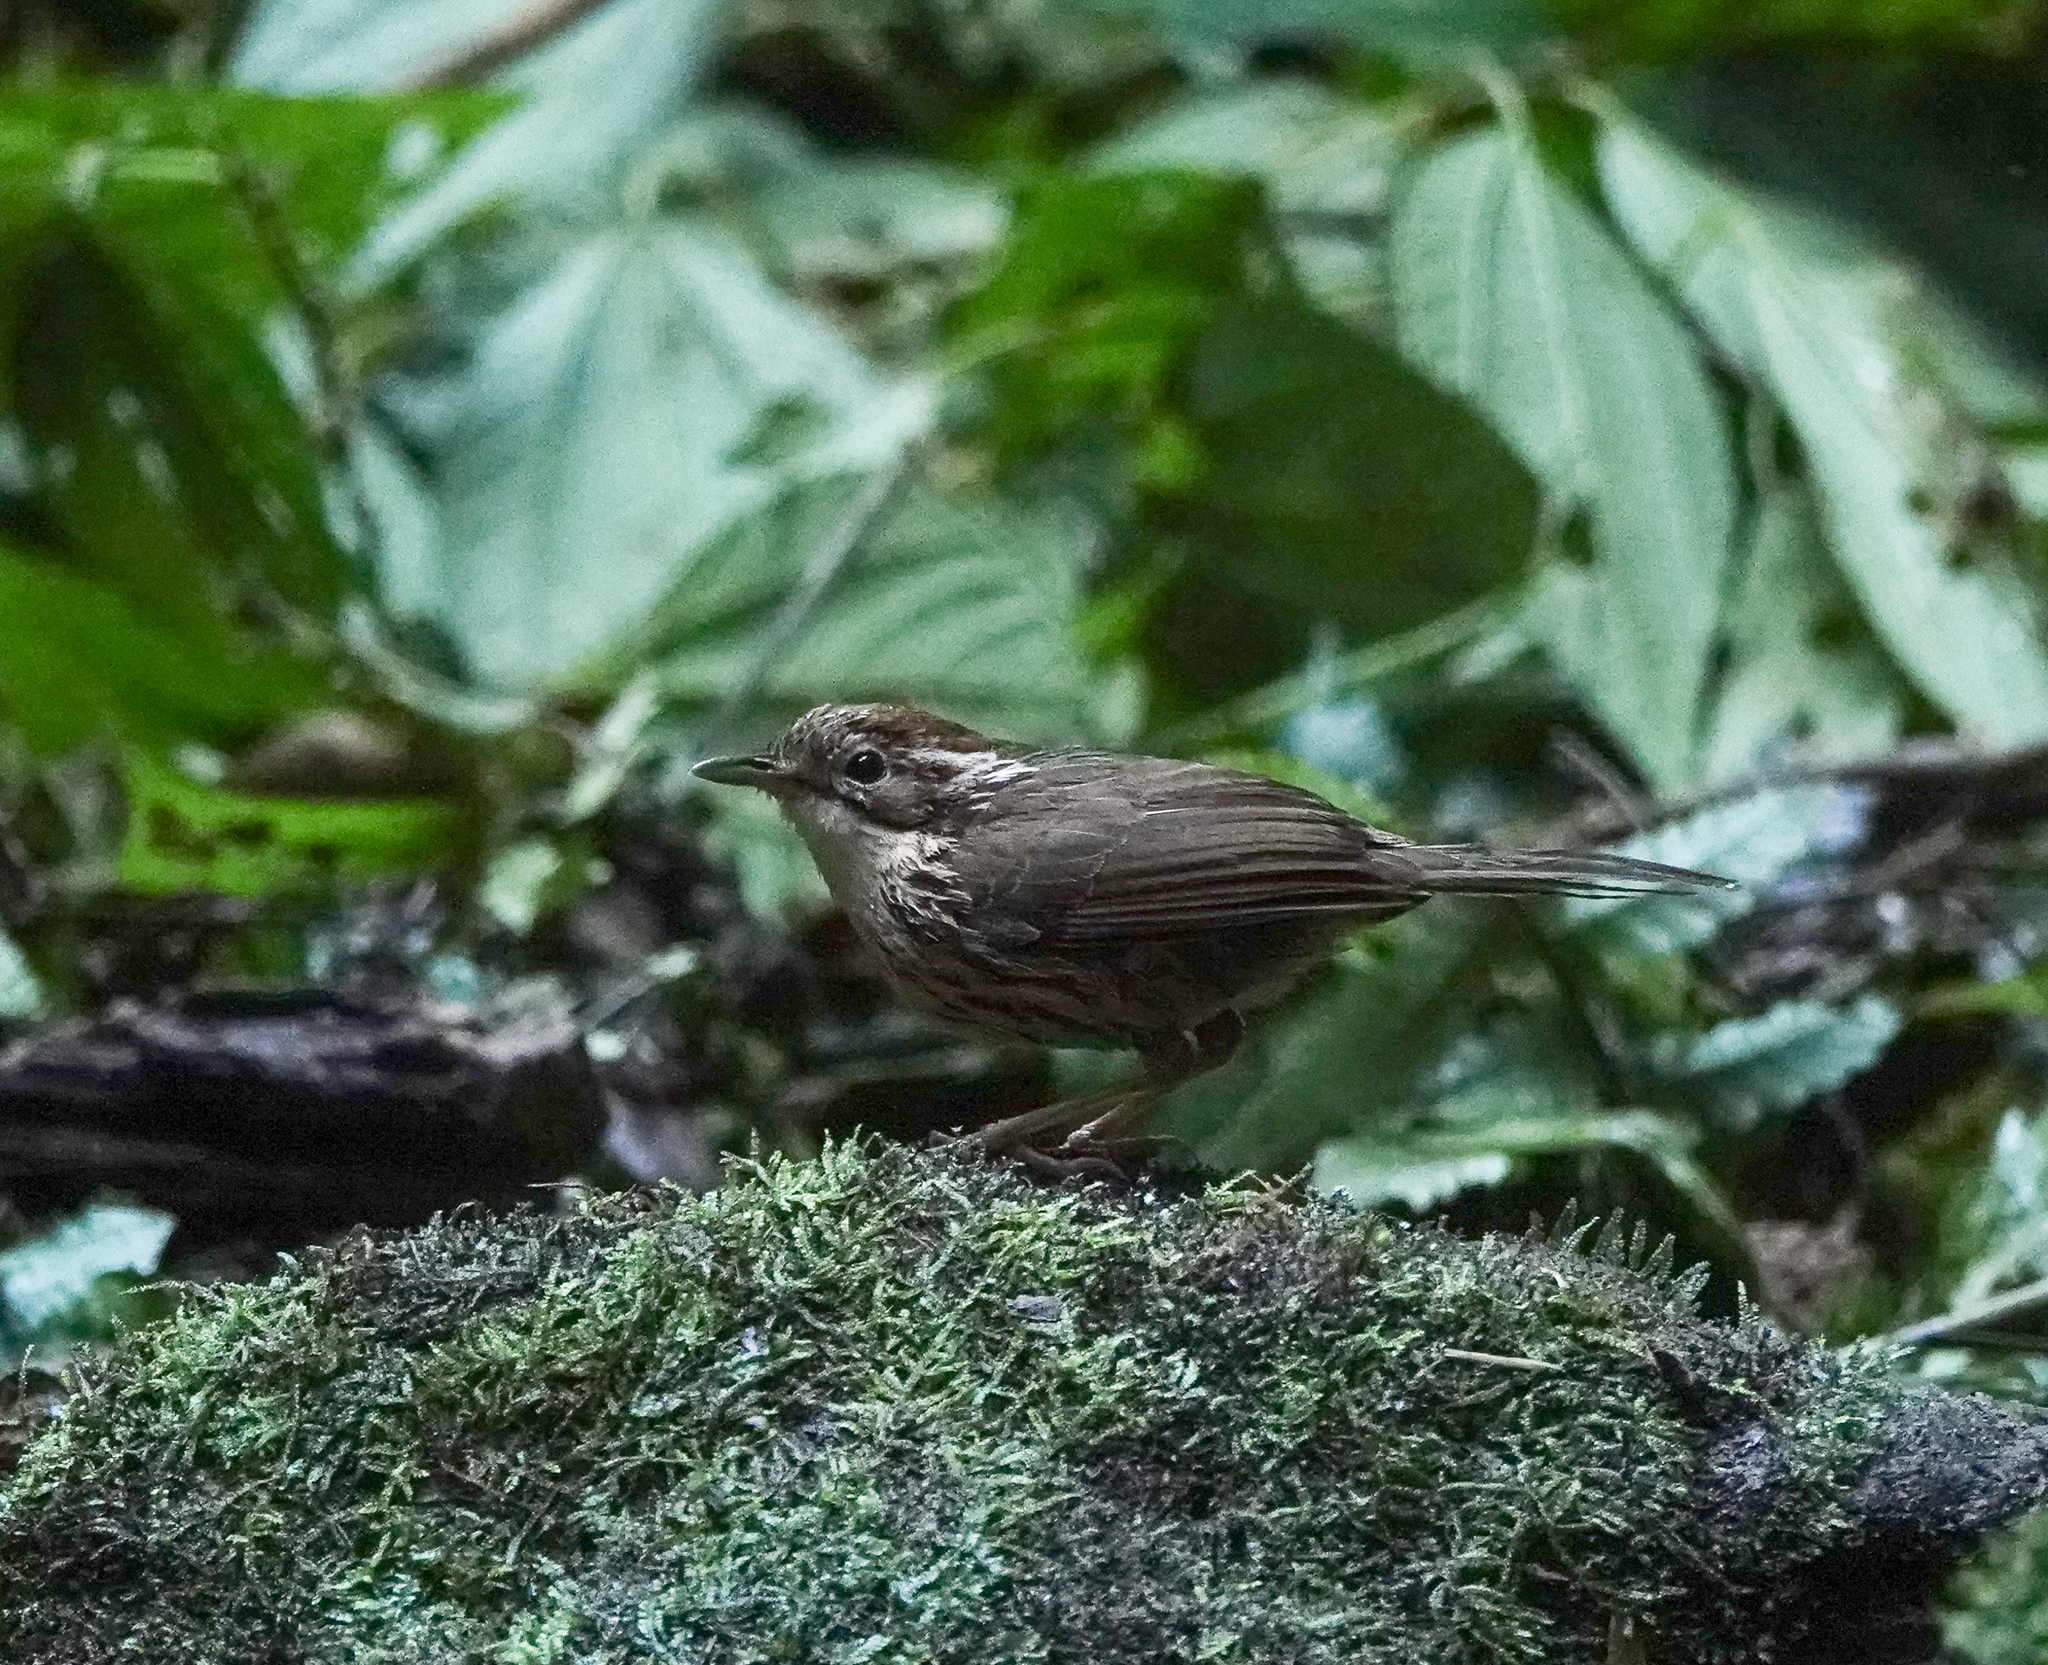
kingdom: Animalia
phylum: Chordata
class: Aves
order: Passeriformes
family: Pellorneidae
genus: Pellorneum
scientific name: Pellorneum ruficeps
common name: Puff-throated babbler
